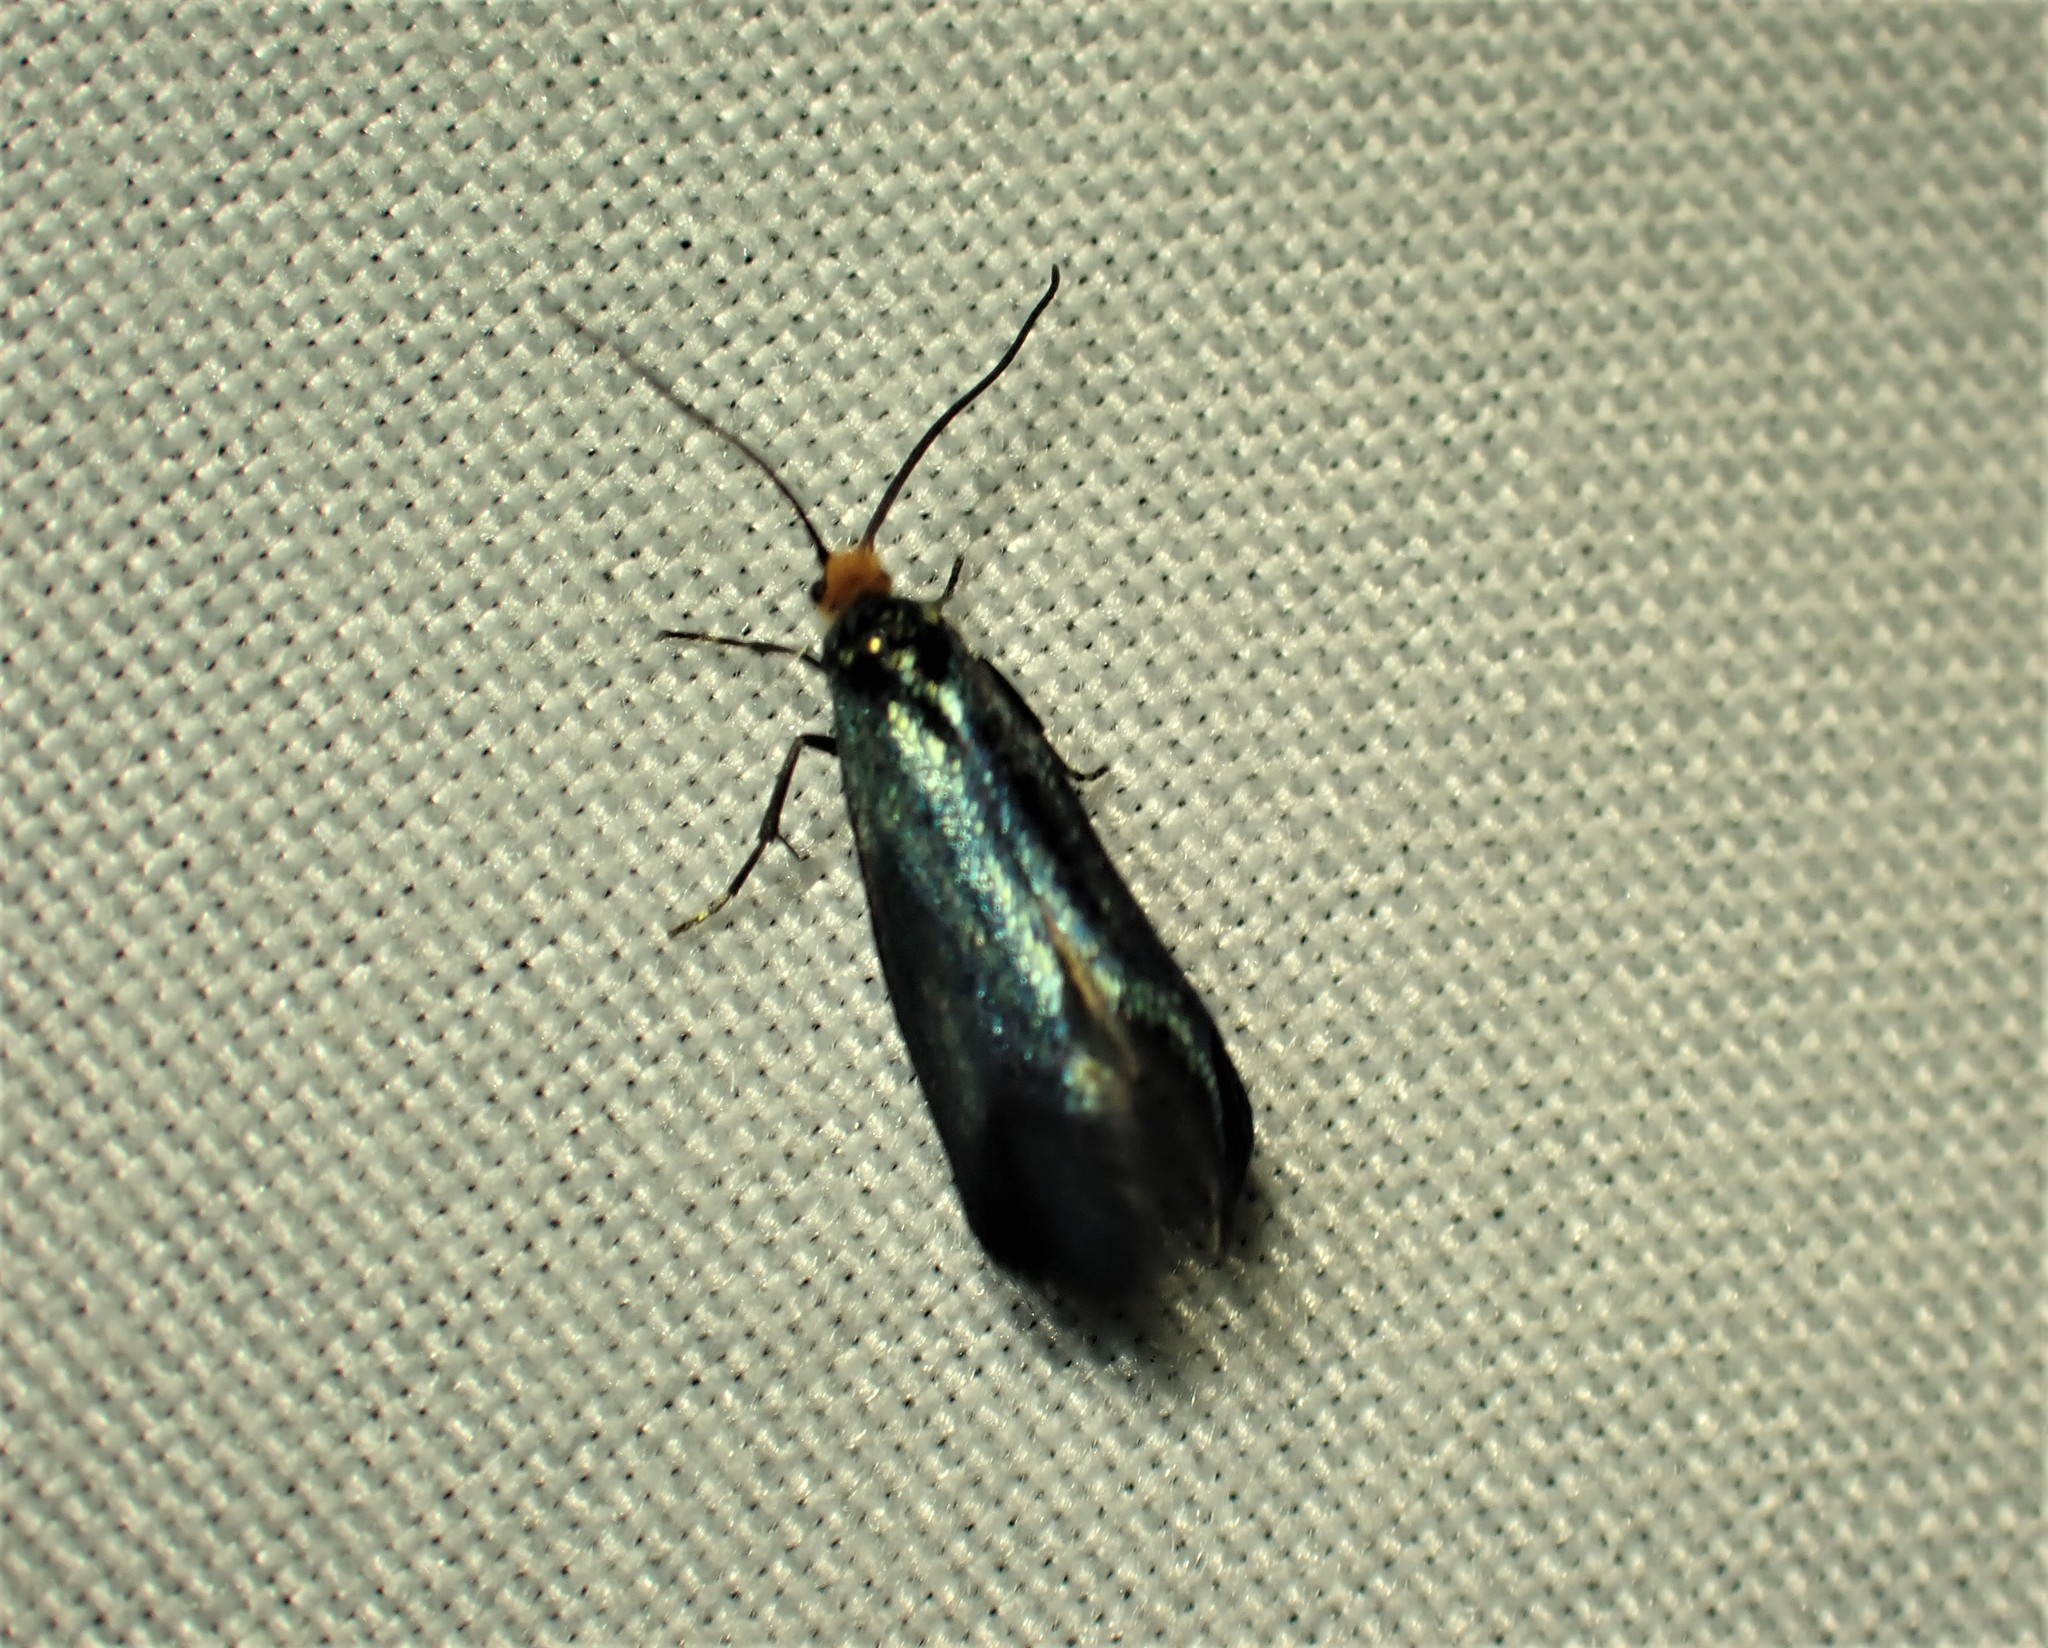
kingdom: Animalia
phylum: Arthropoda
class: Insecta
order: Lepidoptera
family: Incurvariidae
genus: Paraclemensia
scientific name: Paraclemensia acerifoliella
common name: Maple leafcutter
